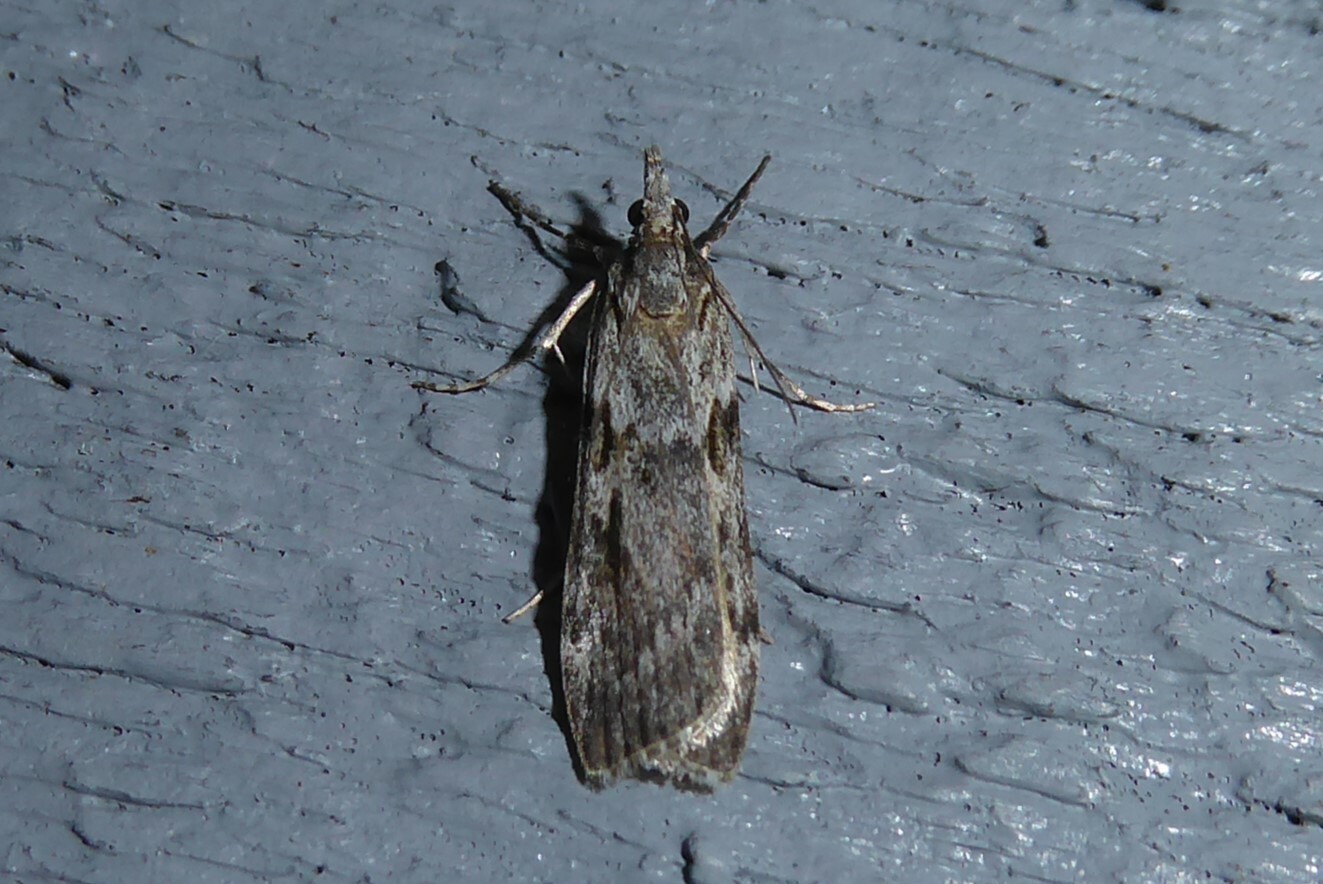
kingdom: Animalia
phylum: Arthropoda
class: Insecta
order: Lepidoptera
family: Crambidae
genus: Scoparia
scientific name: Scoparia halopis
